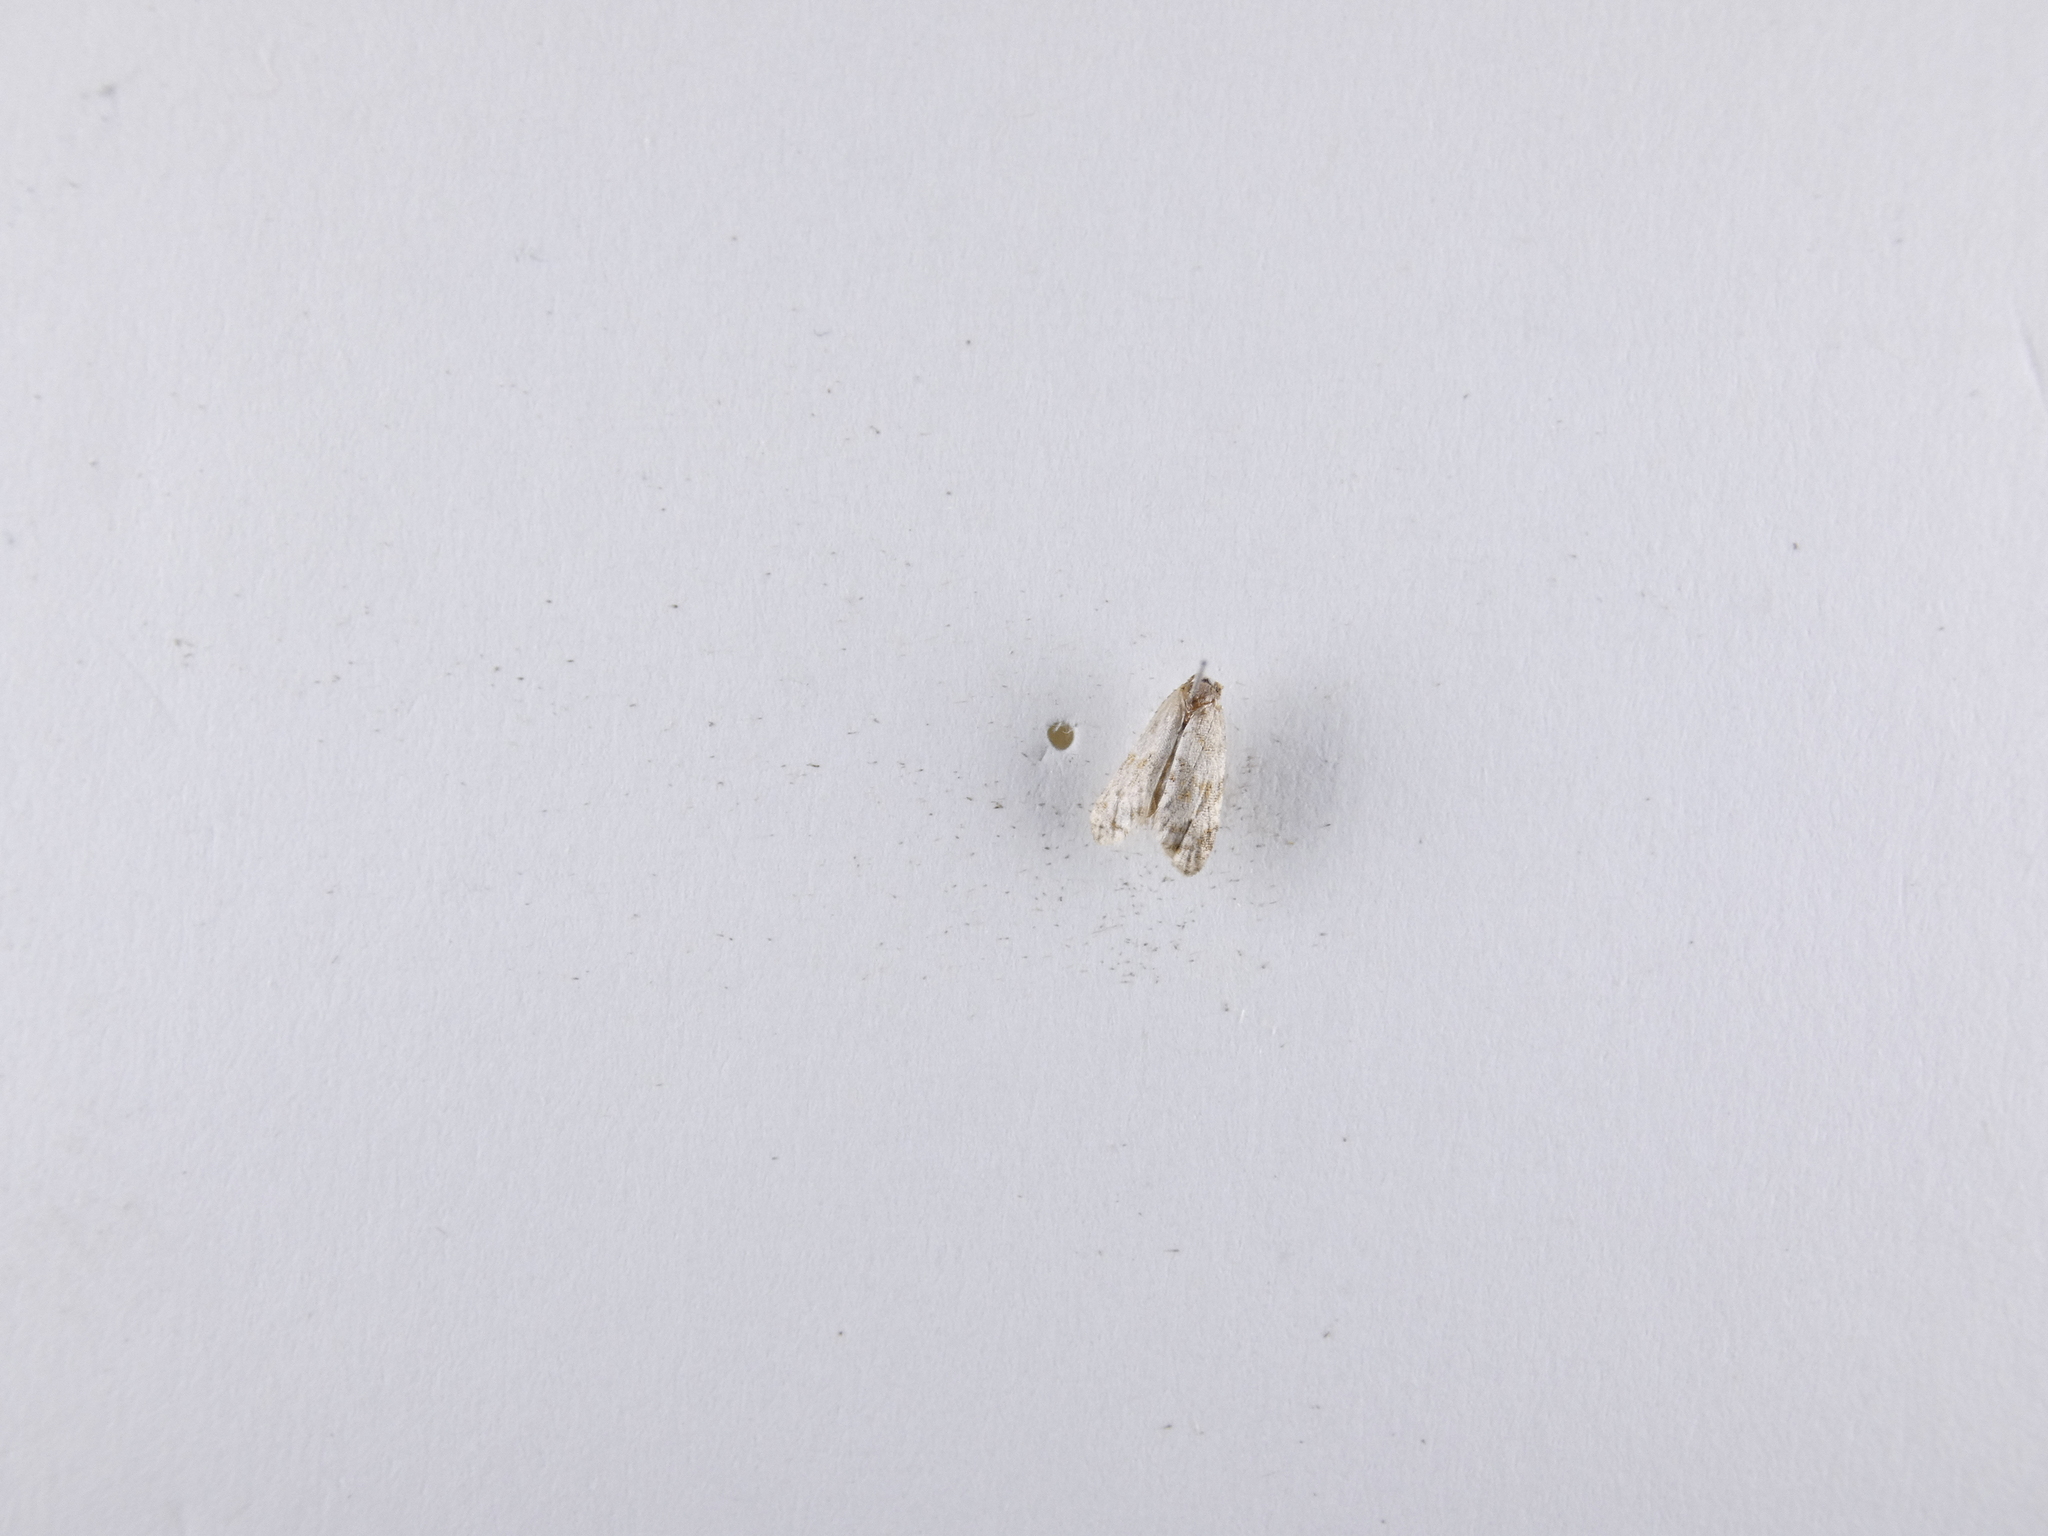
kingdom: Animalia
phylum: Arthropoda
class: Insecta
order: Lepidoptera
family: Tortricidae
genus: Dipterina
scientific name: Dipterina imbriferana
